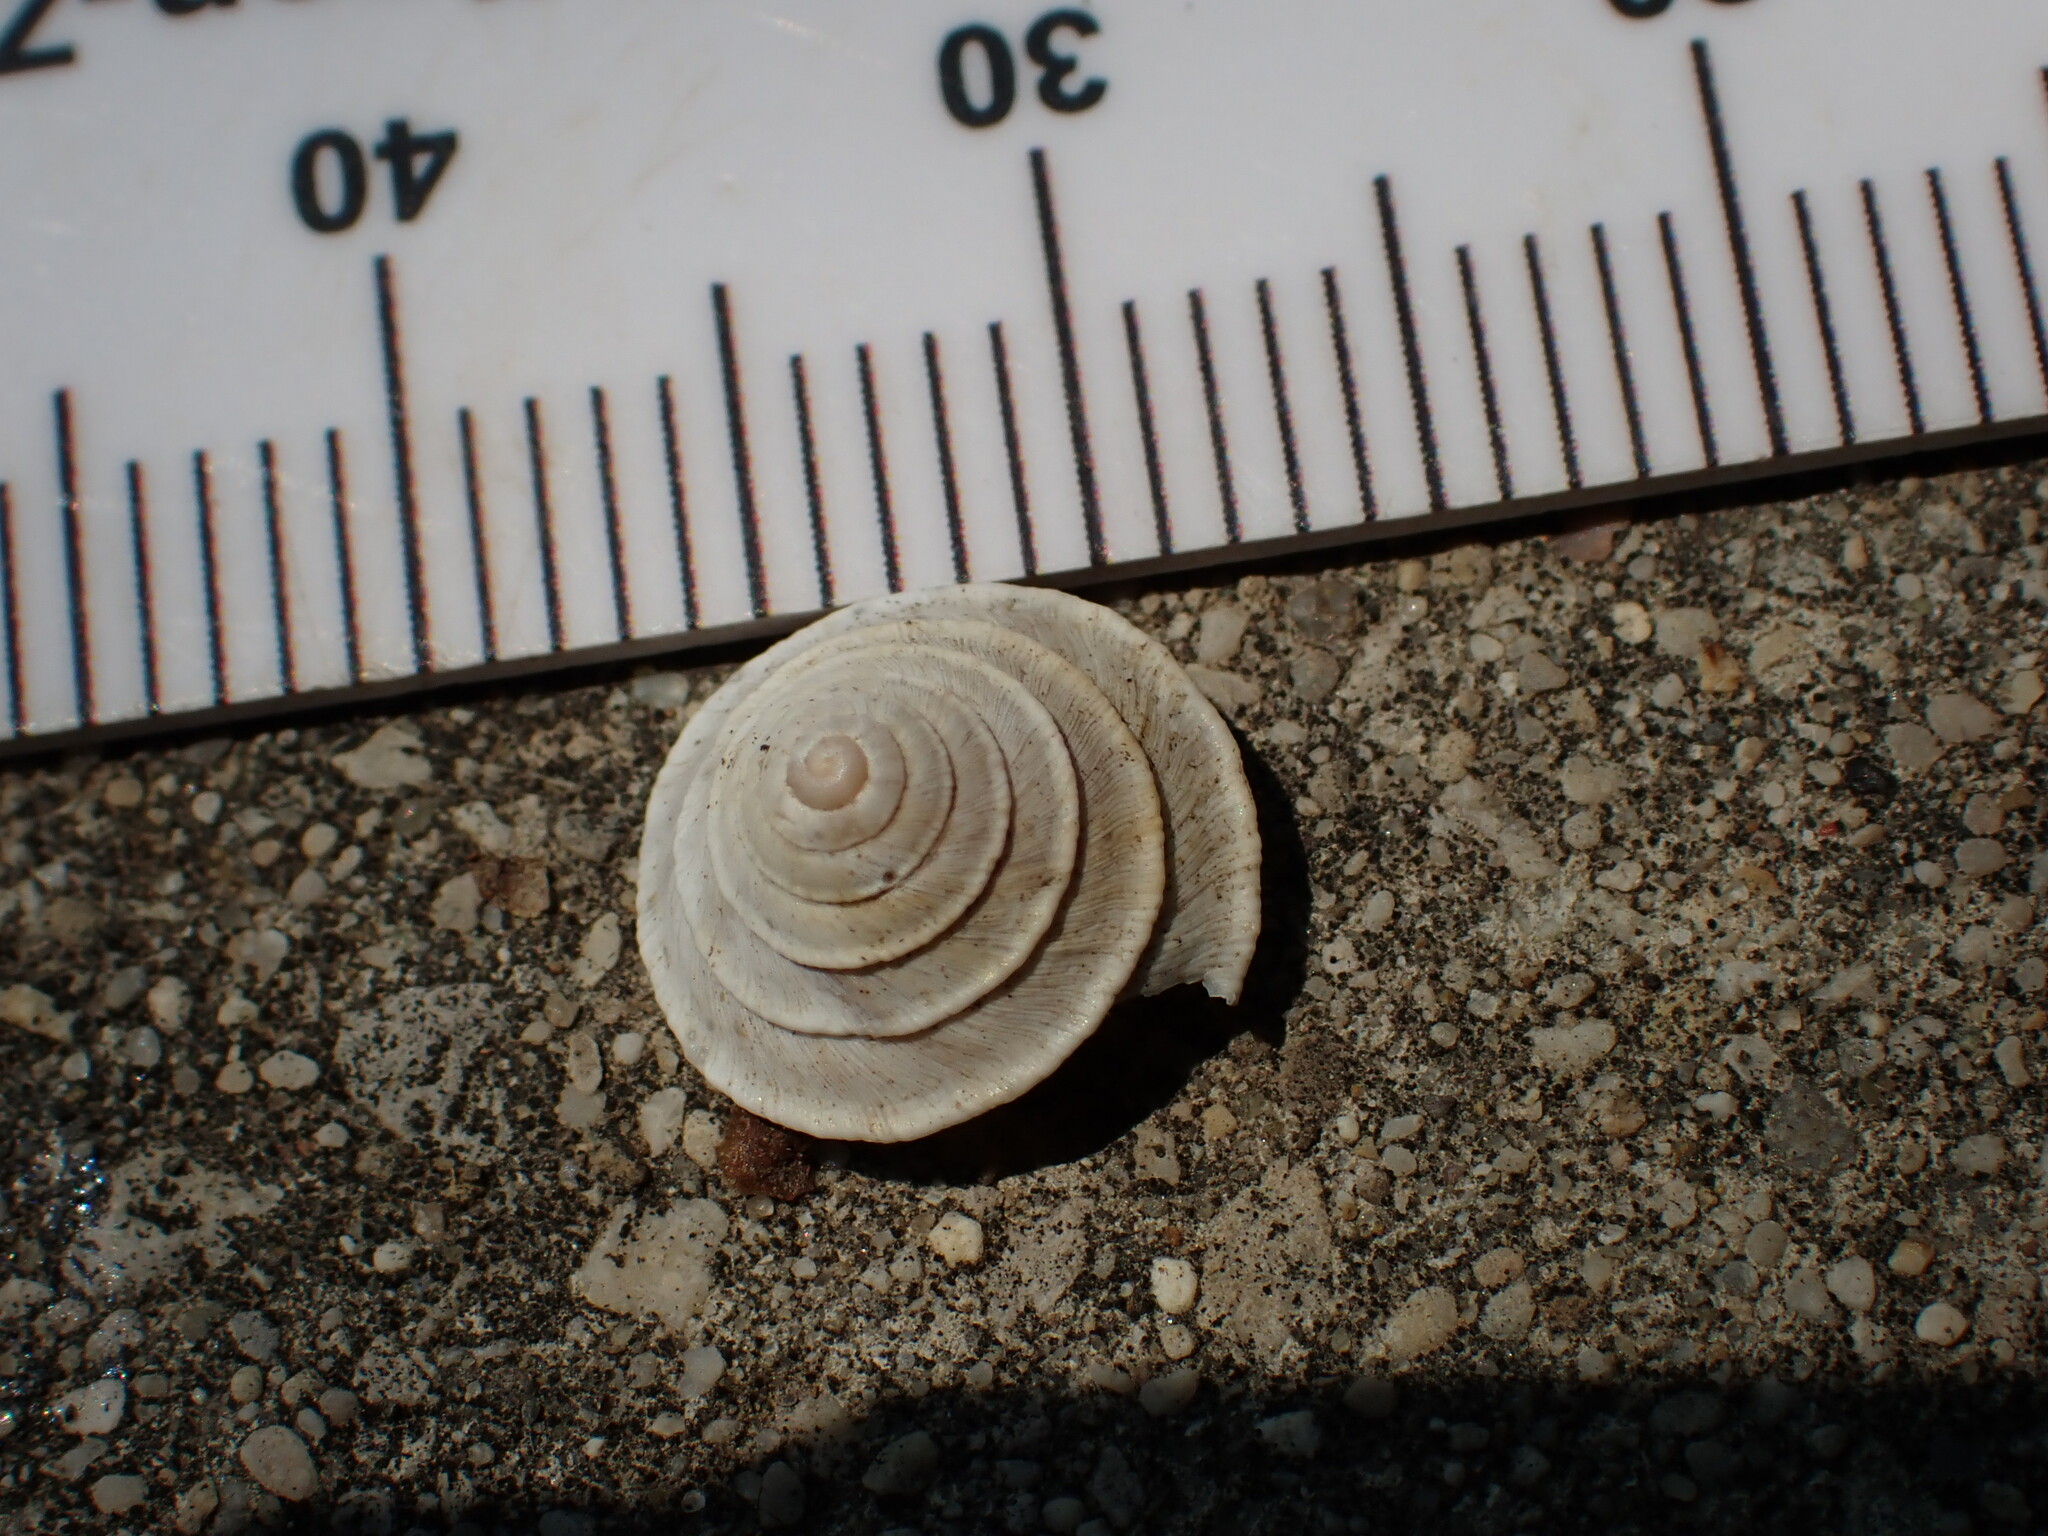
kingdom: Animalia
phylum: Mollusca
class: Gastropoda
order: Stylommatophora
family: Geomitridae
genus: Trochoidea
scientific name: Trochoidea elegans
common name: Elegant helicellid
